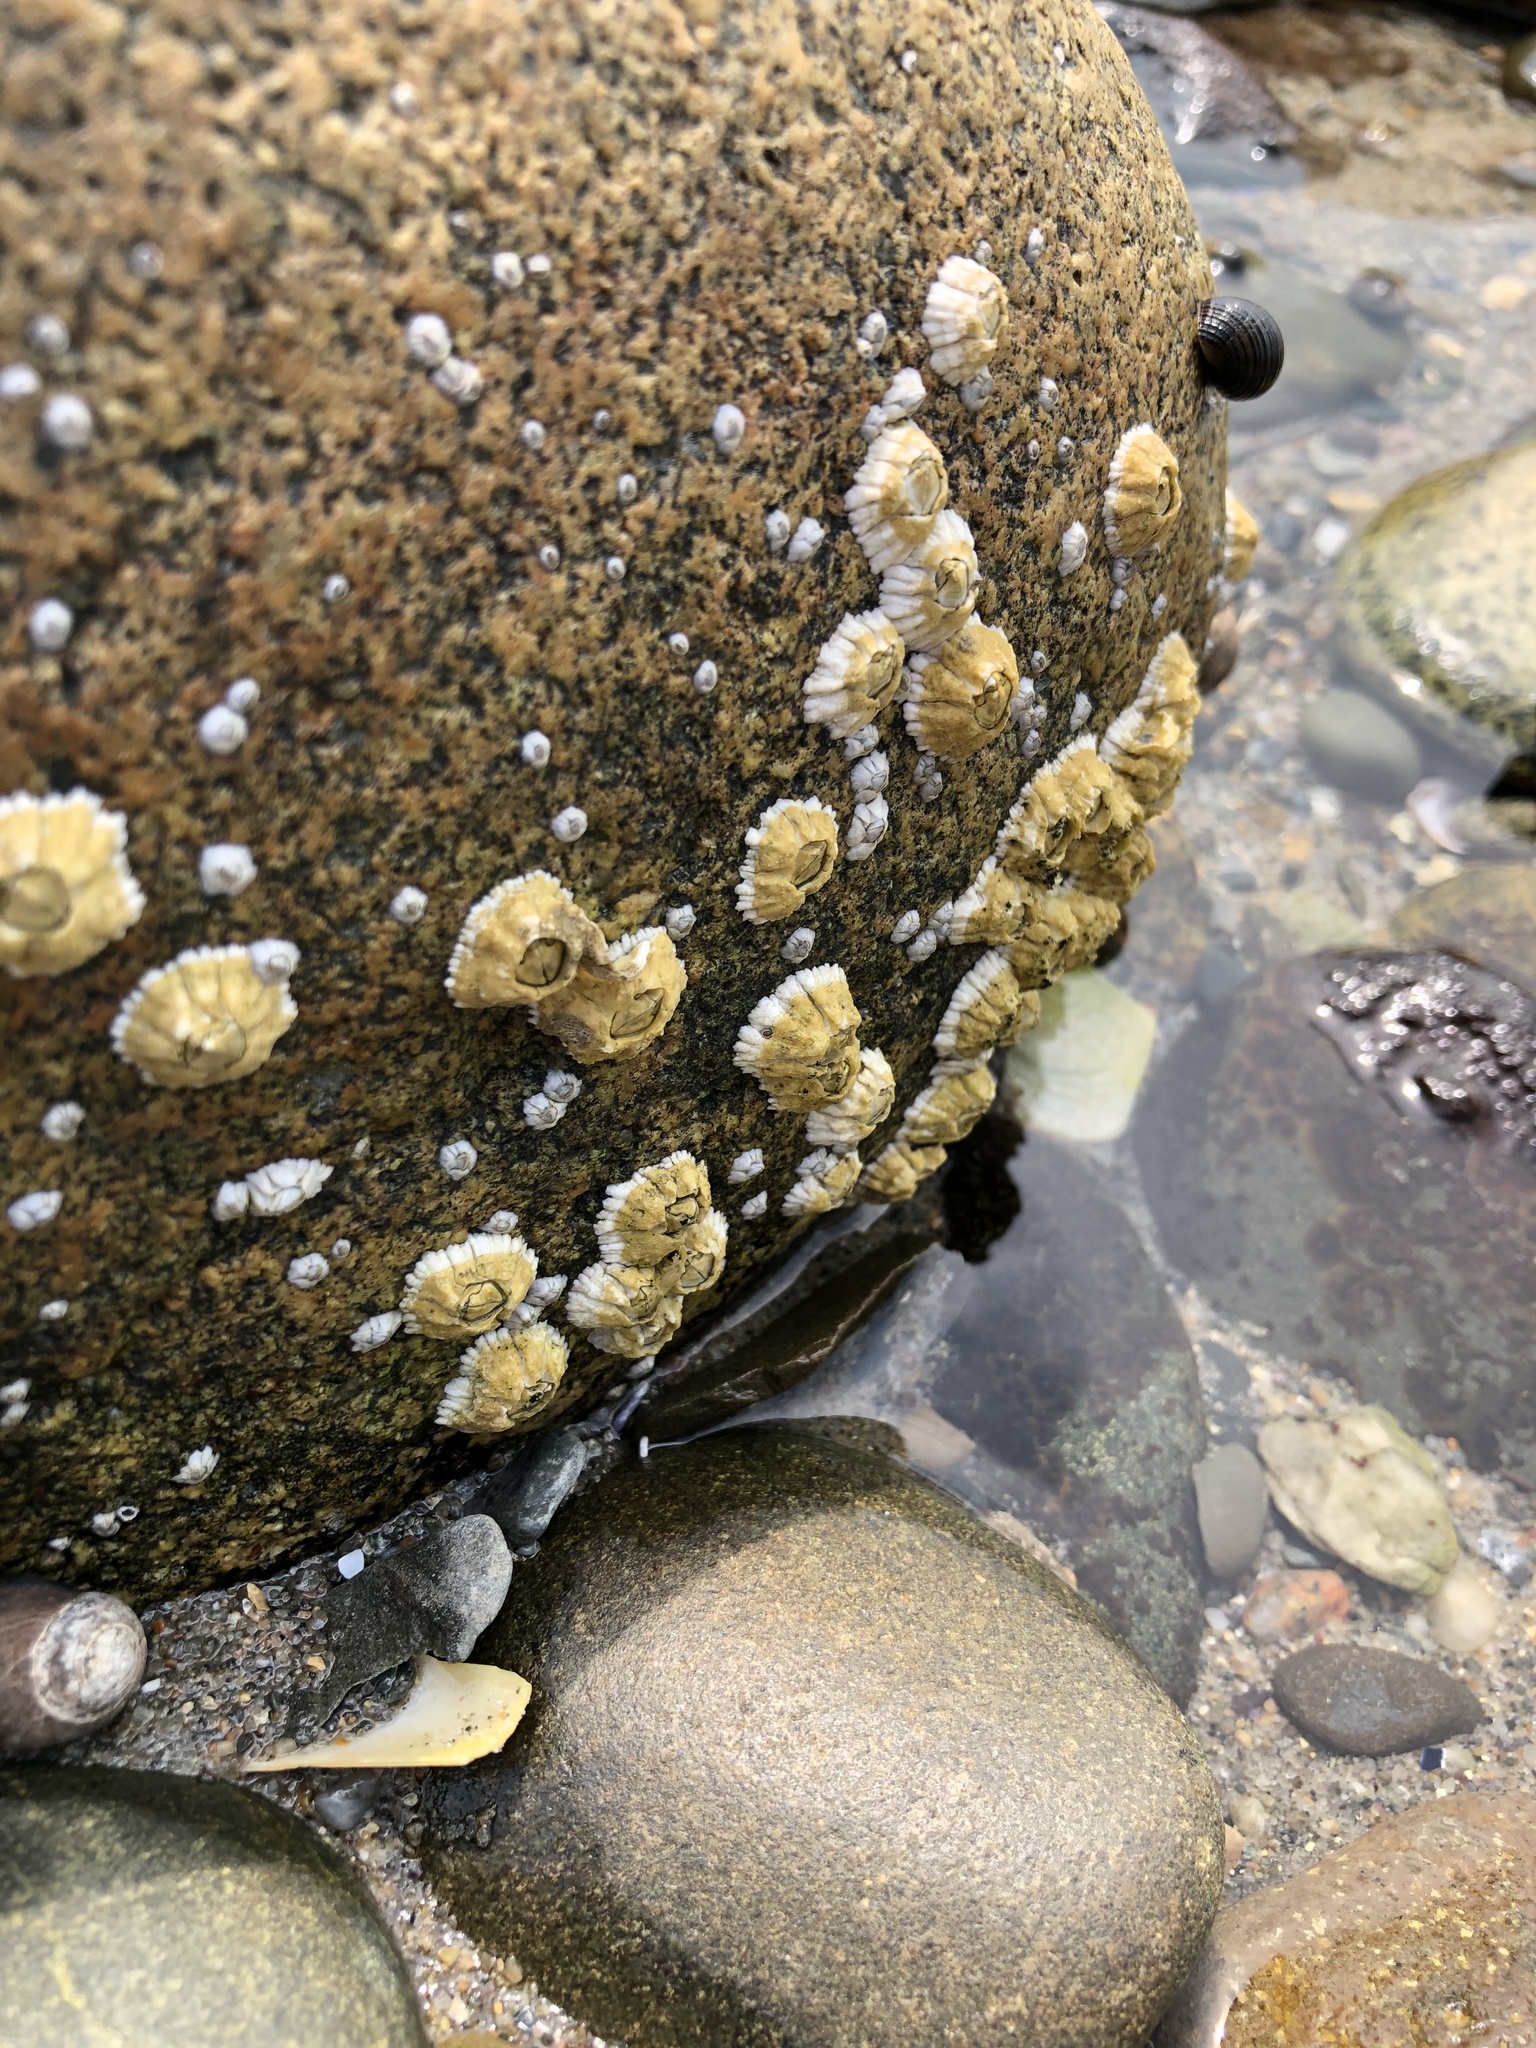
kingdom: Animalia
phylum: Arthropoda
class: Maxillopoda
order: Sessilia
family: Archaeobalanidae
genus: Semibalanus
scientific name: Semibalanus balanoides
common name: Acorn barnacle
